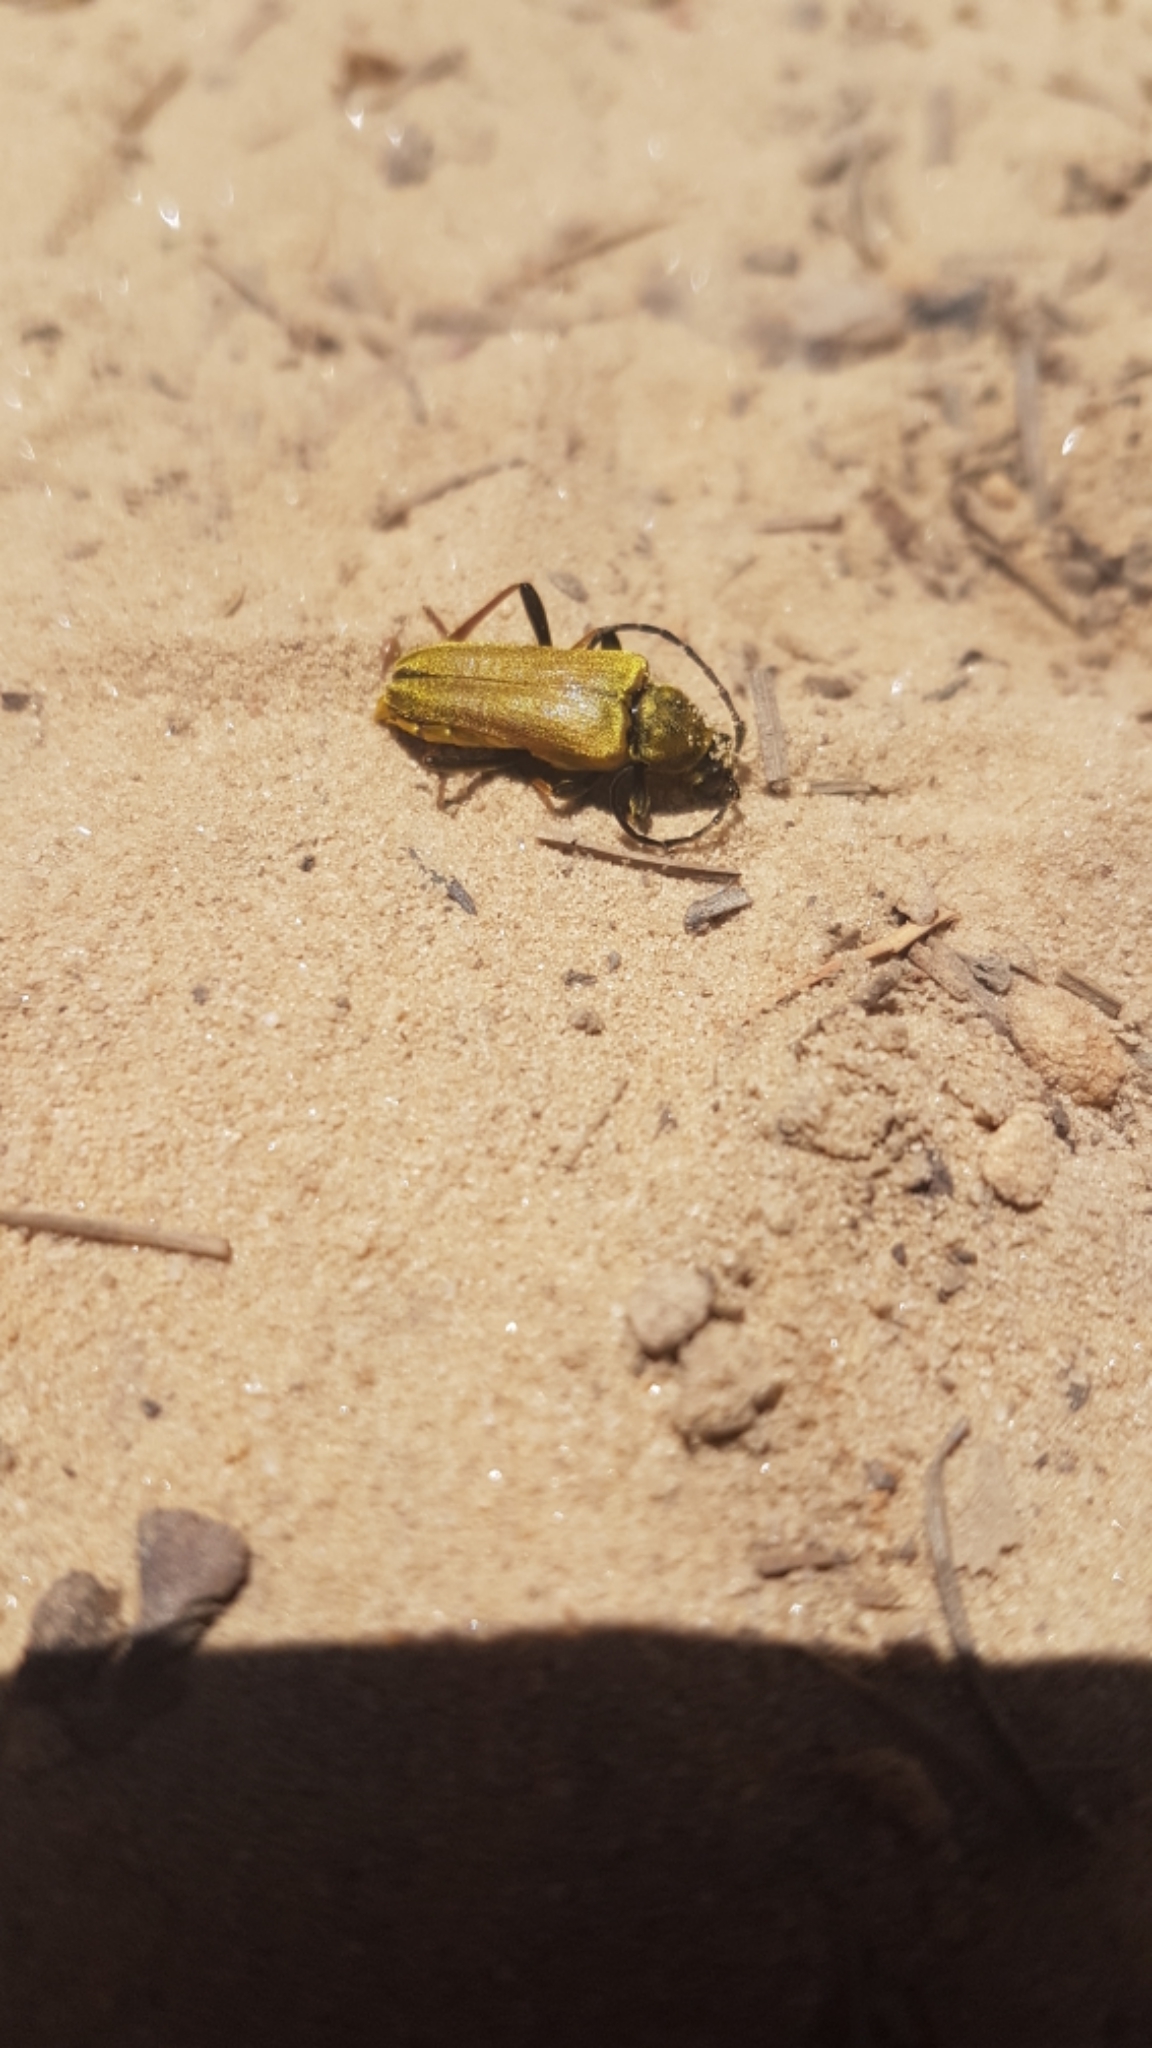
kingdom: Animalia
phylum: Arthropoda
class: Insecta
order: Coleoptera
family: Cerambycidae
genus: Cosmosalia
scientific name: Cosmosalia chrysocoma
